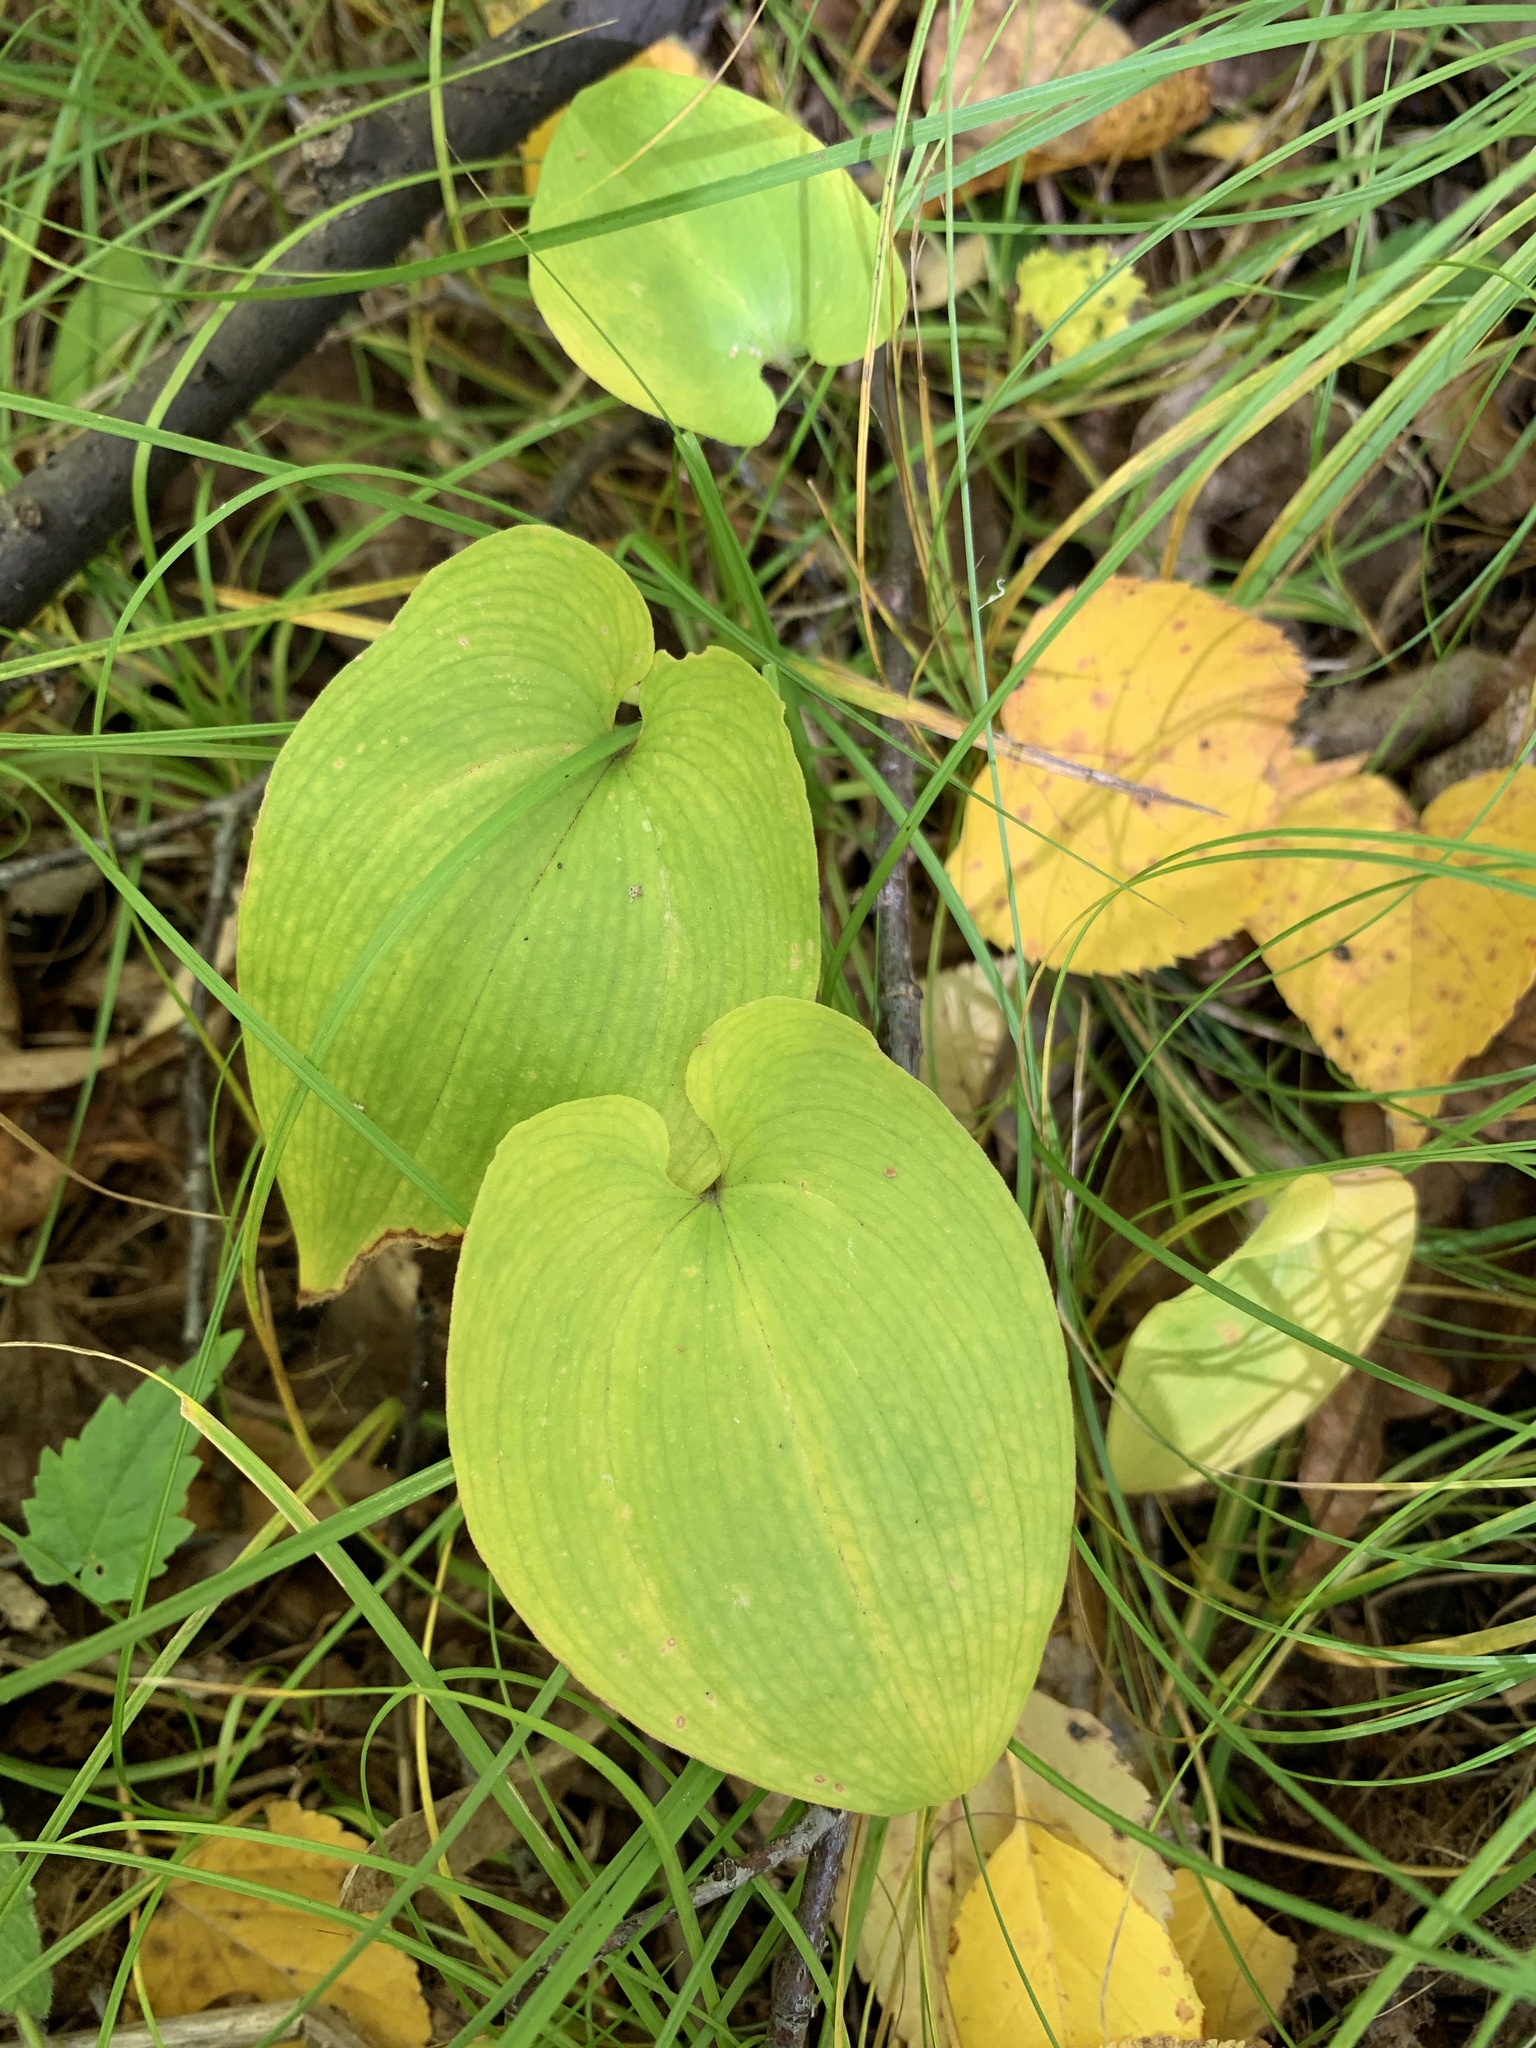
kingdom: Plantae
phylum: Tracheophyta
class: Liliopsida
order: Asparagales
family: Asparagaceae
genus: Maianthemum
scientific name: Maianthemum bifolium
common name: May lily
